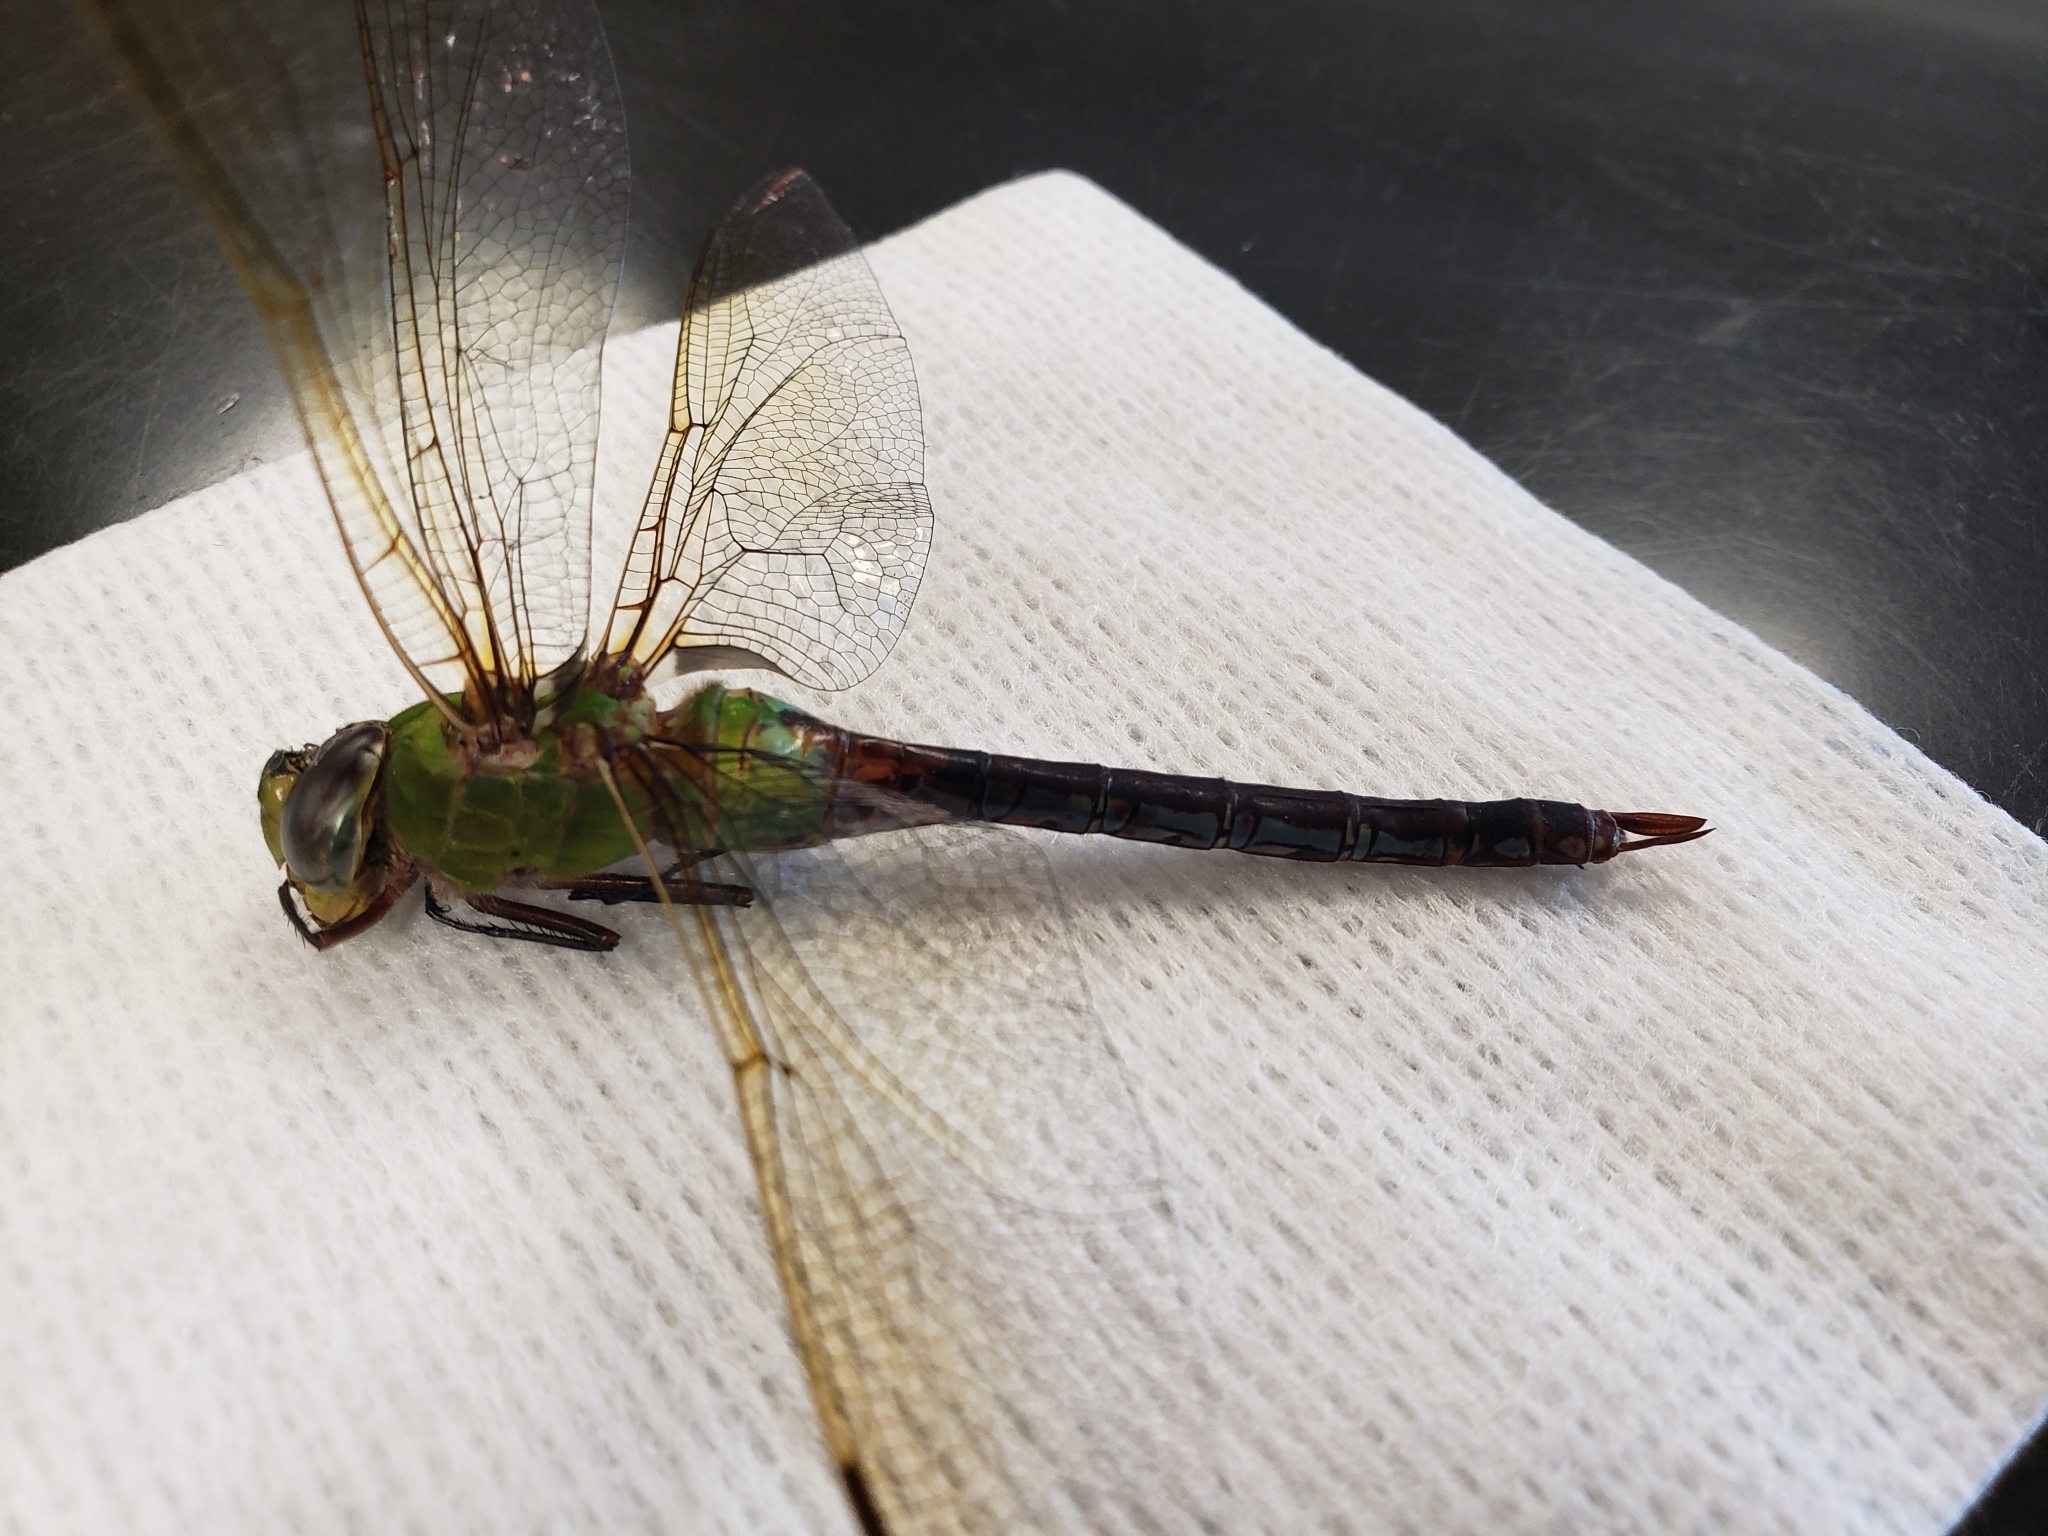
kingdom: Animalia
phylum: Arthropoda
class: Insecta
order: Odonata
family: Aeshnidae
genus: Anax
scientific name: Anax junius
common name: Common green darner
